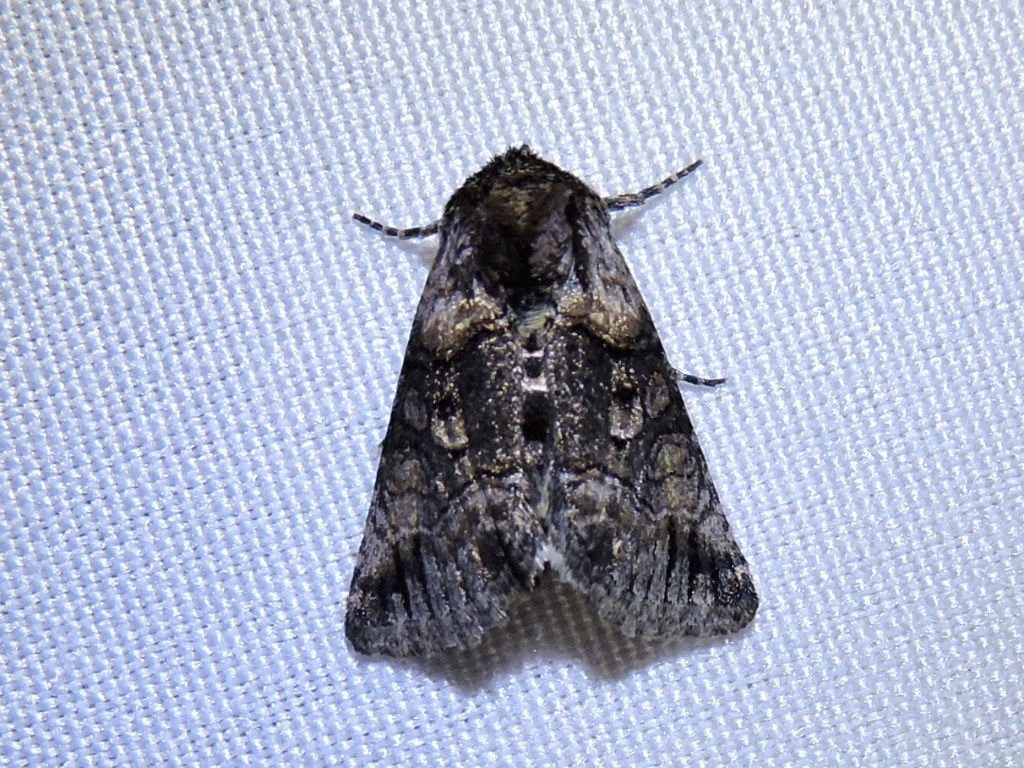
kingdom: Animalia
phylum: Arthropoda
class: Insecta
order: Lepidoptera
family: Noctuidae
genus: Abrostola
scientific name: Abrostola microvalis
